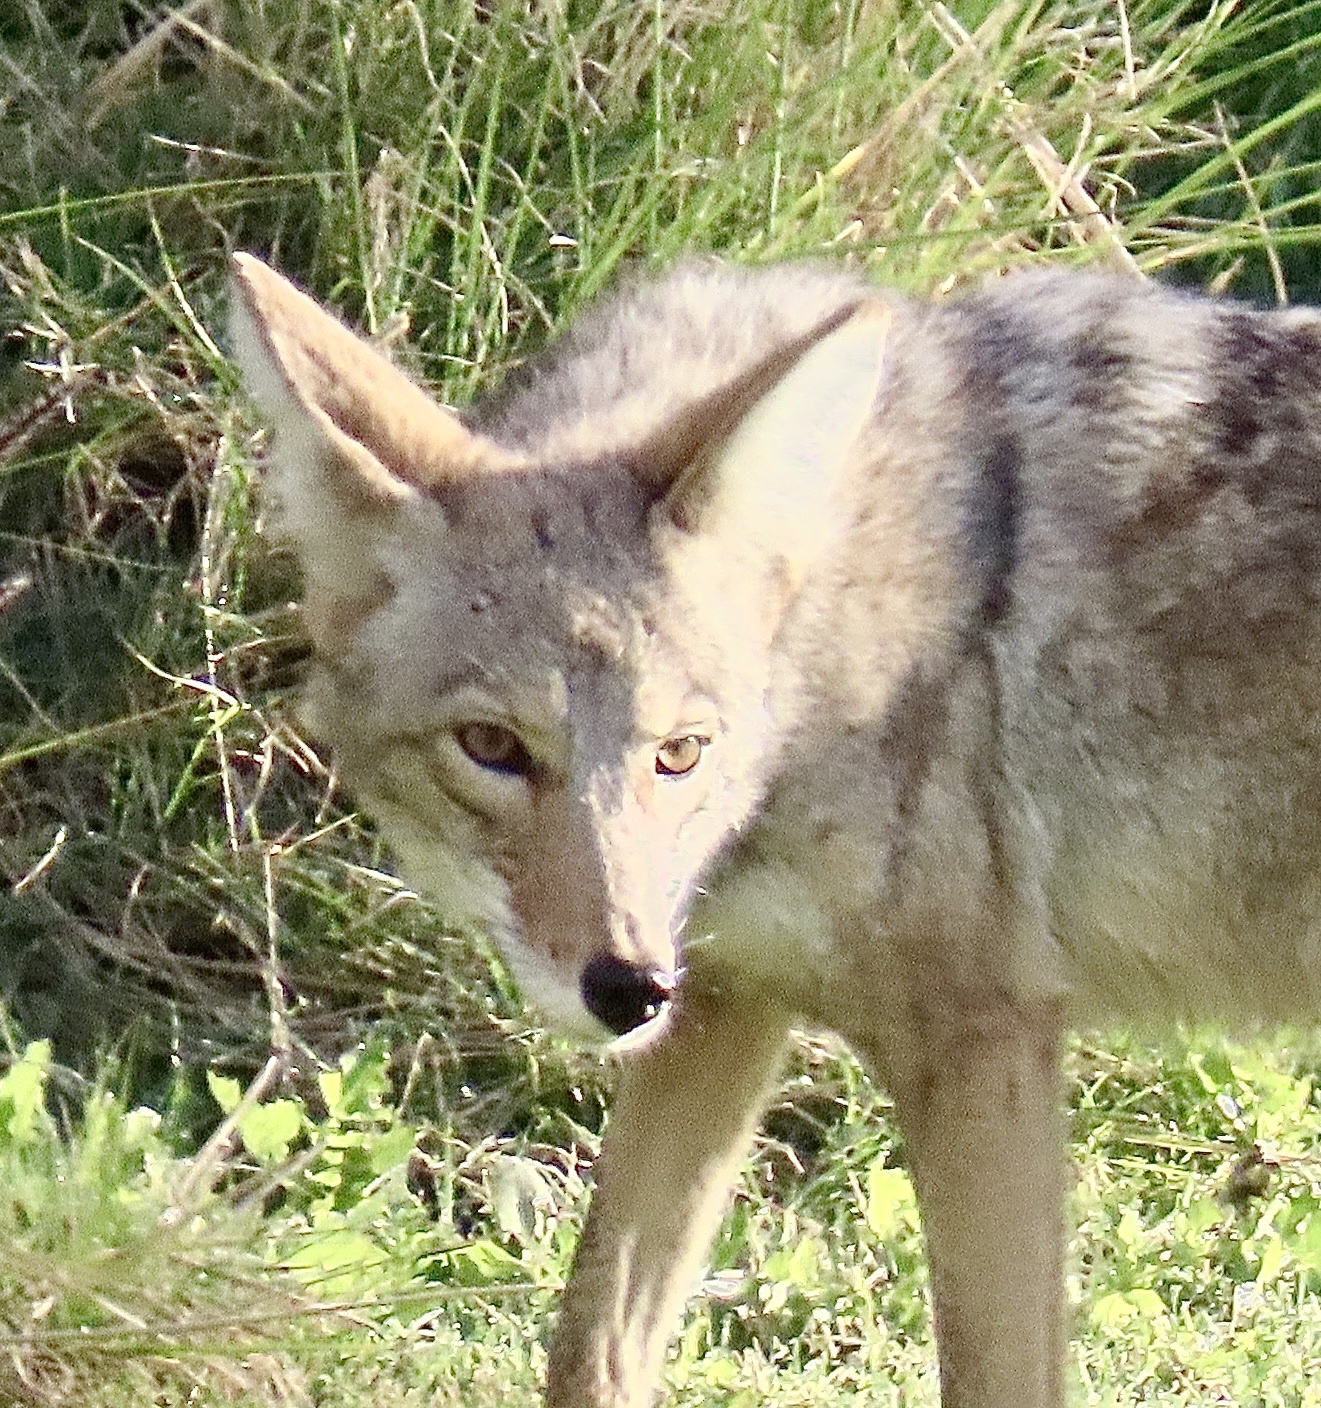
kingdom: Animalia
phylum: Chordata
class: Mammalia
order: Carnivora
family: Canidae
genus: Canis
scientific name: Canis latrans
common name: Coyote
